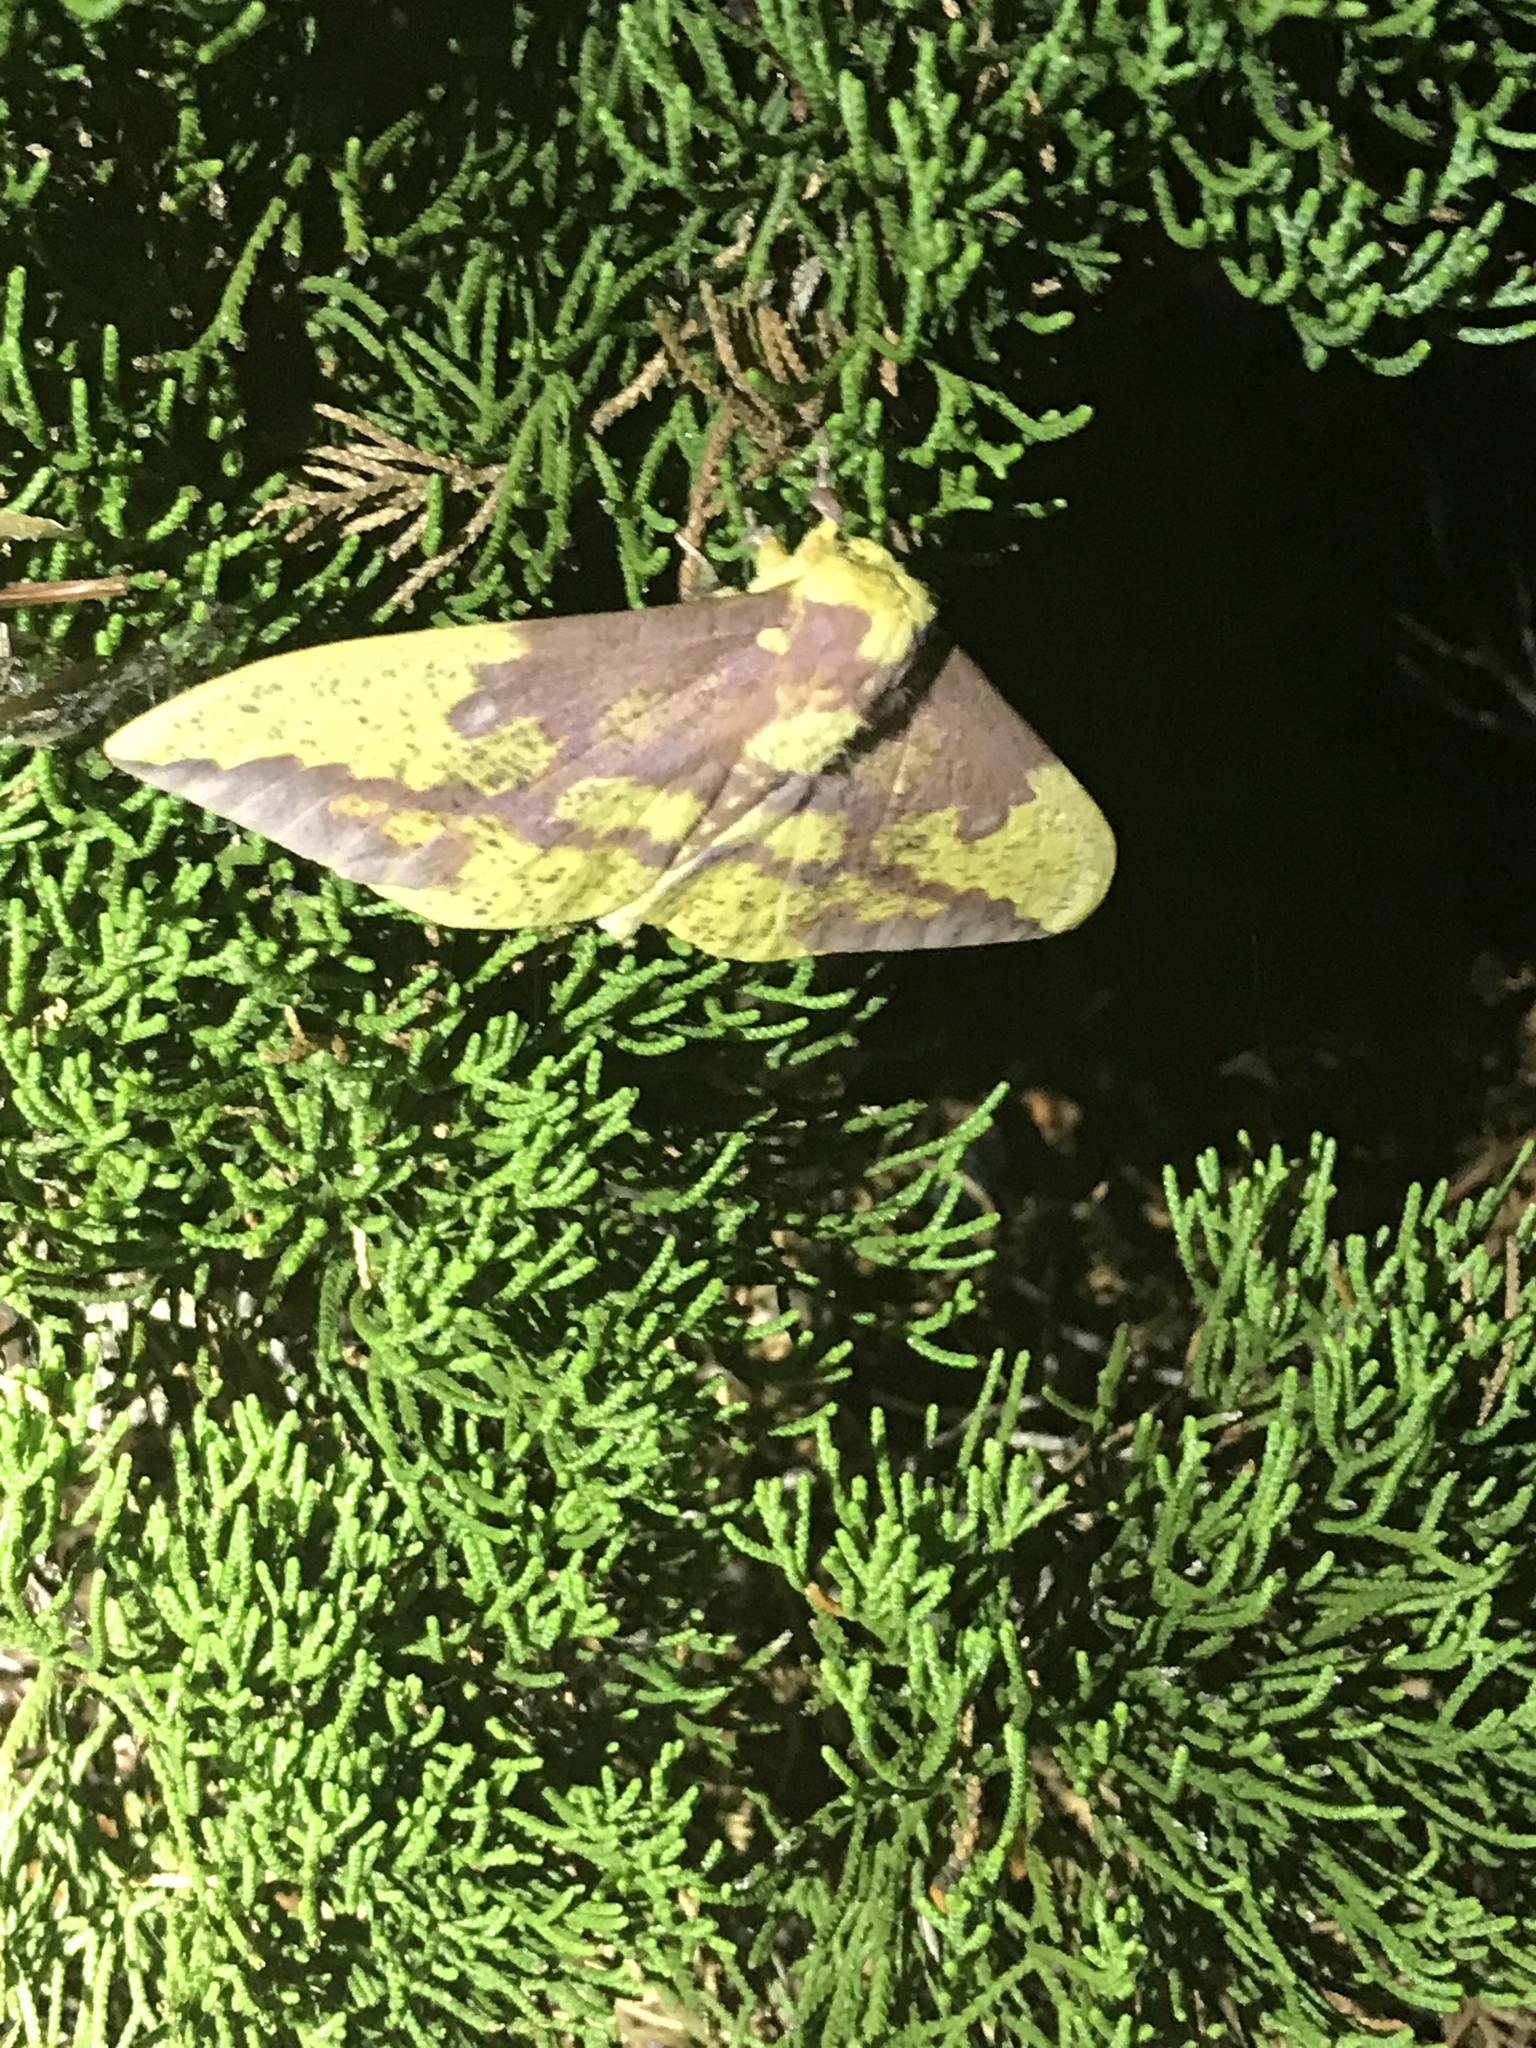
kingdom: Animalia
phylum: Arthropoda
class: Insecta
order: Lepidoptera
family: Saturniidae
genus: Eacles
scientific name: Eacles imperialis
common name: Imperial moth
